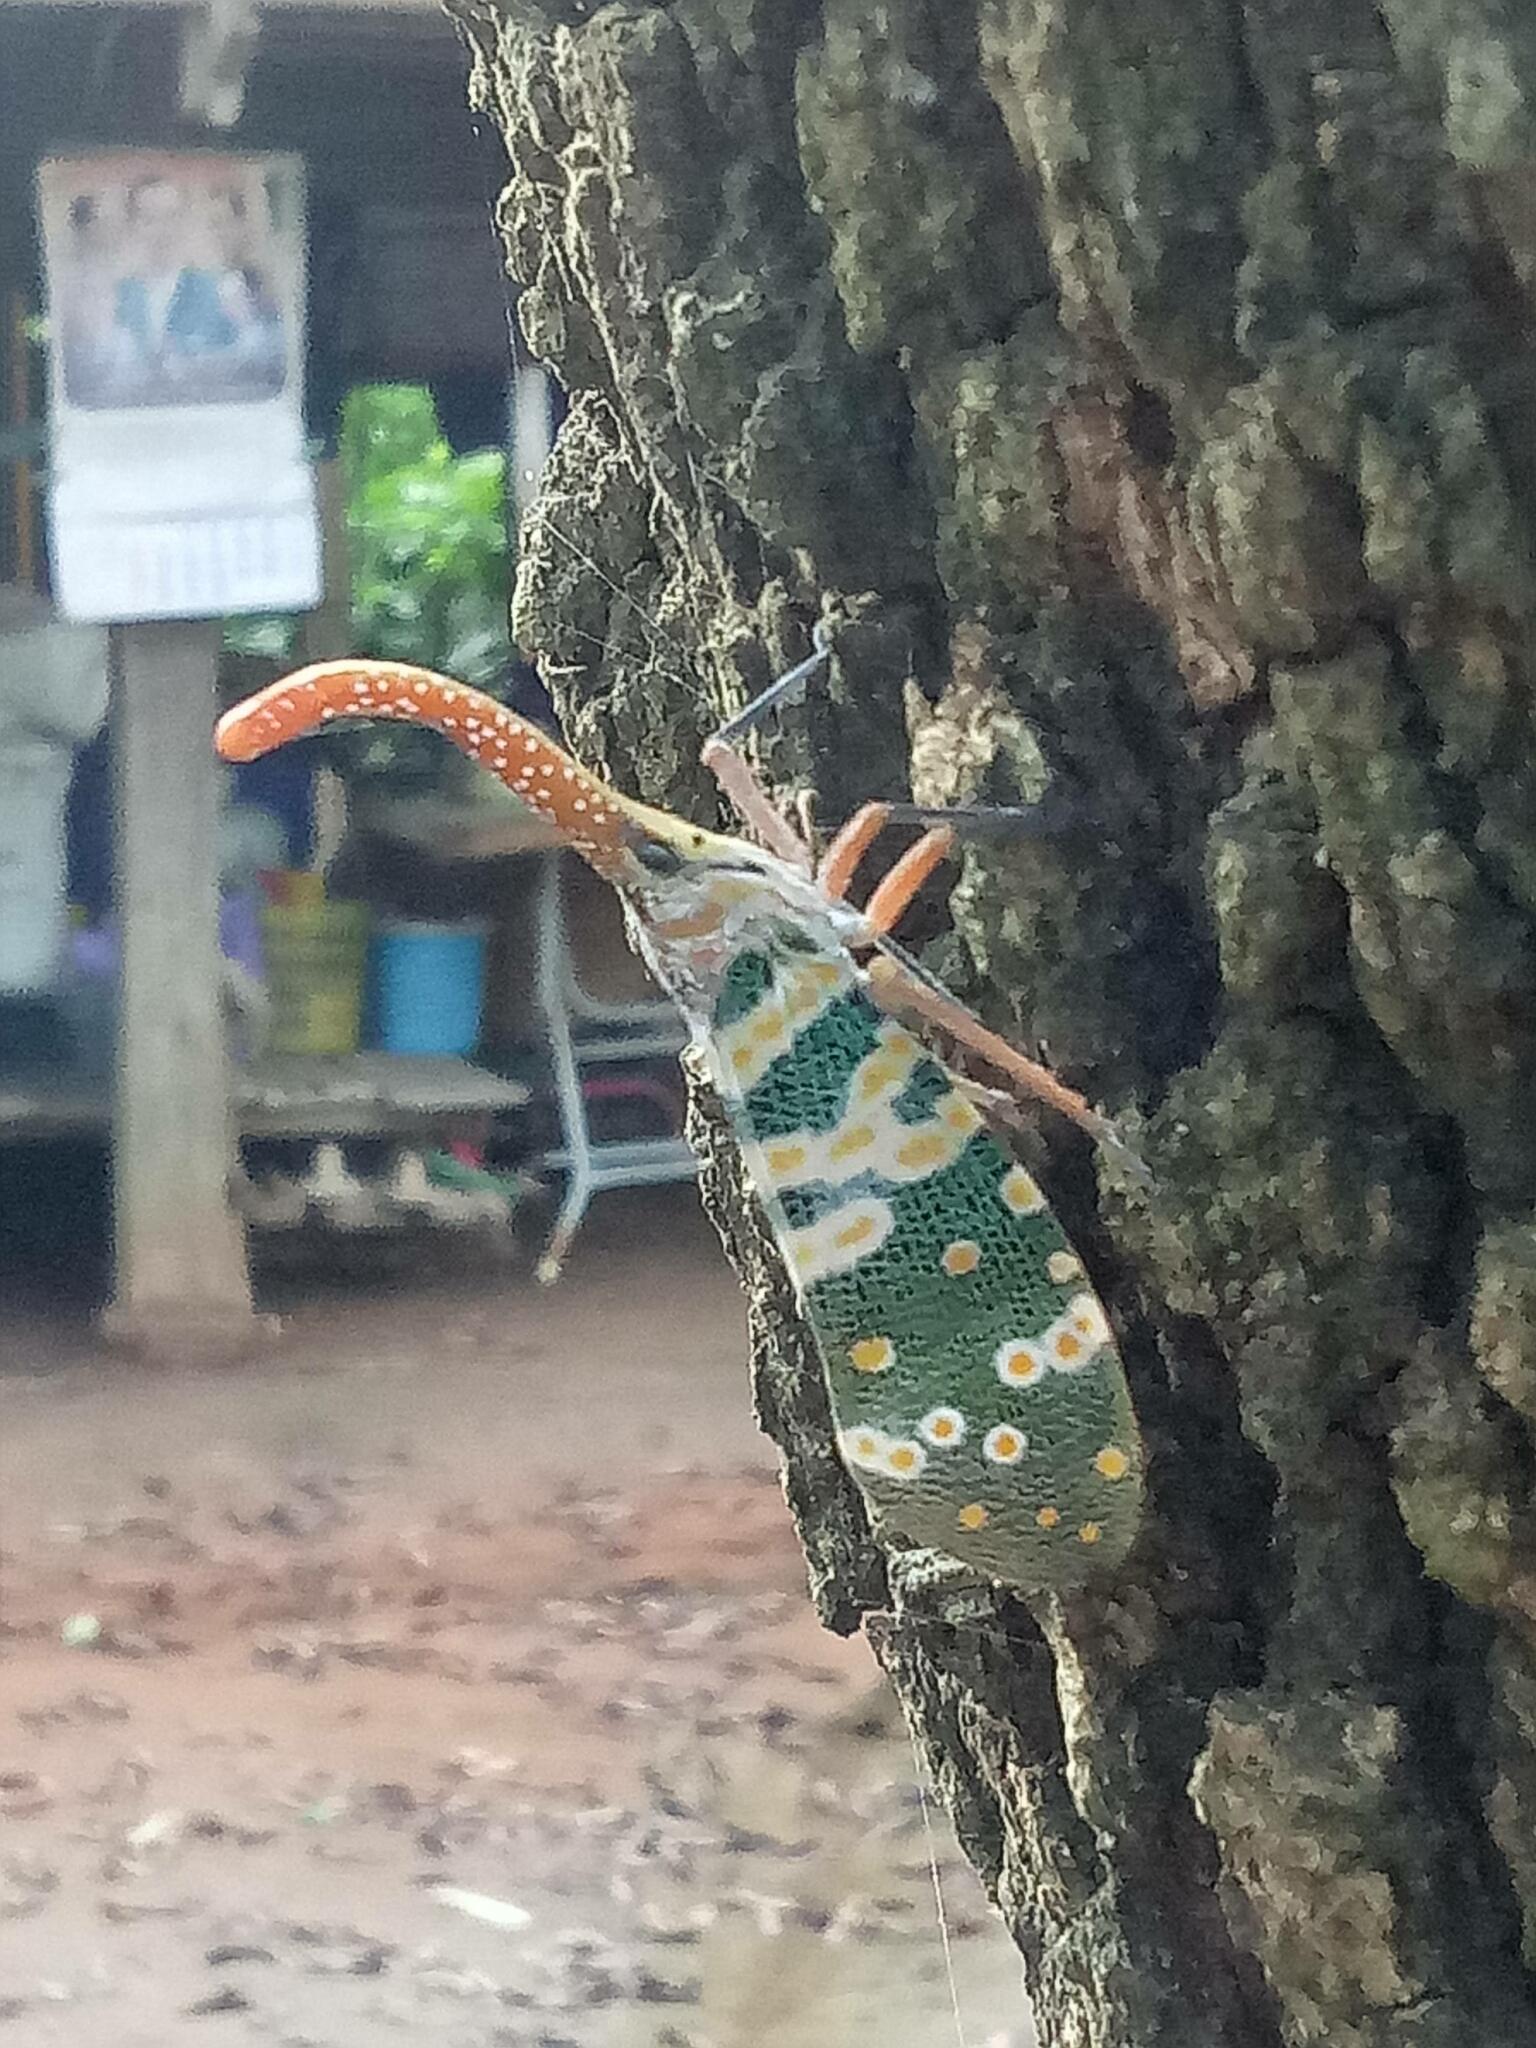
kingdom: Animalia
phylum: Arthropoda
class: Insecta
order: Hemiptera
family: Fulgoridae
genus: Pyrops
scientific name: Pyrops candelaria
